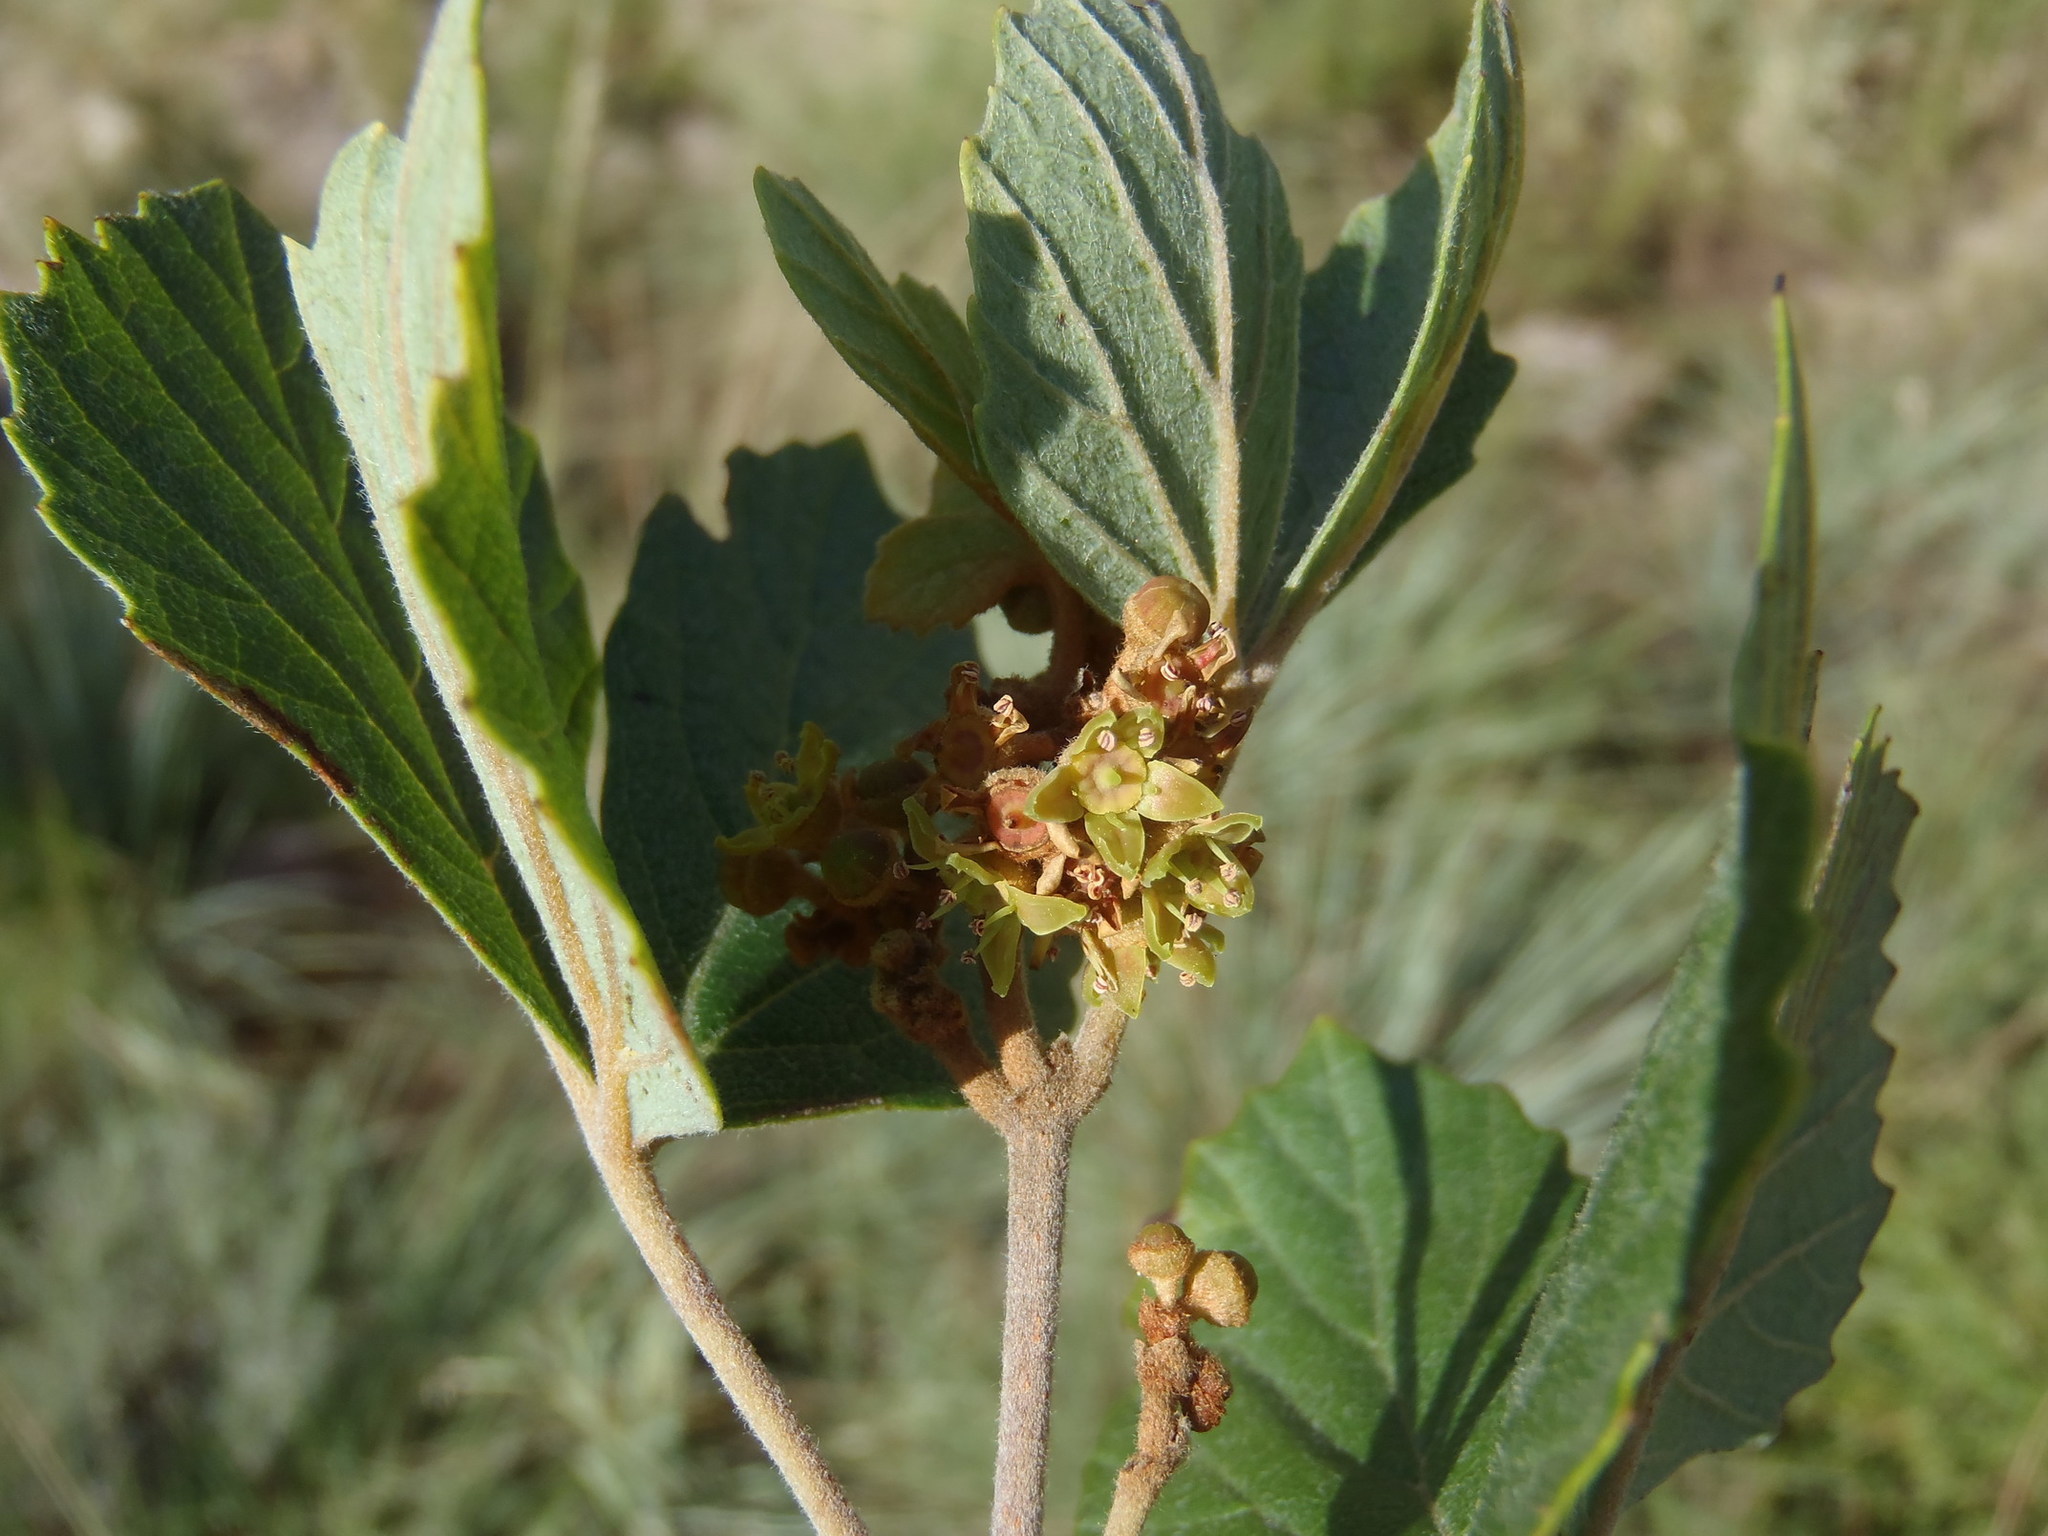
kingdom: Plantae
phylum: Tracheophyta
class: Magnoliopsida
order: Vitales
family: Vitaceae
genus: Rhoicissus
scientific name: Rhoicissus tridentata
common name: Common forest grape
